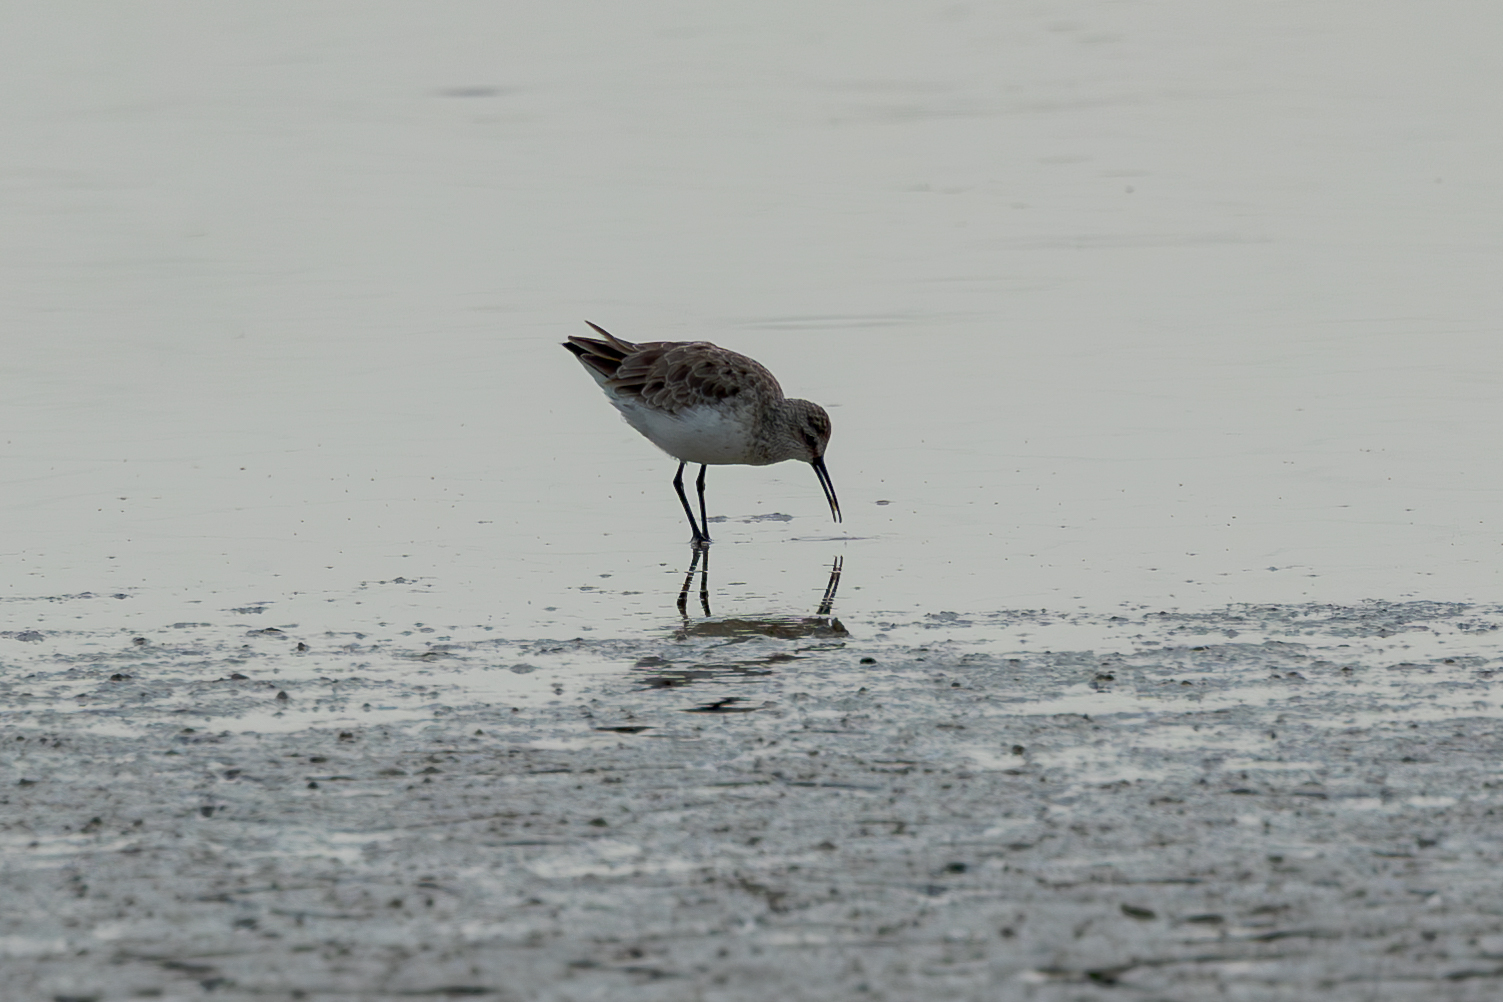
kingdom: Animalia
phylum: Chordata
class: Aves
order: Charadriiformes
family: Scolopacidae
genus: Calidris
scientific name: Calidris minuta
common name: Little stint
